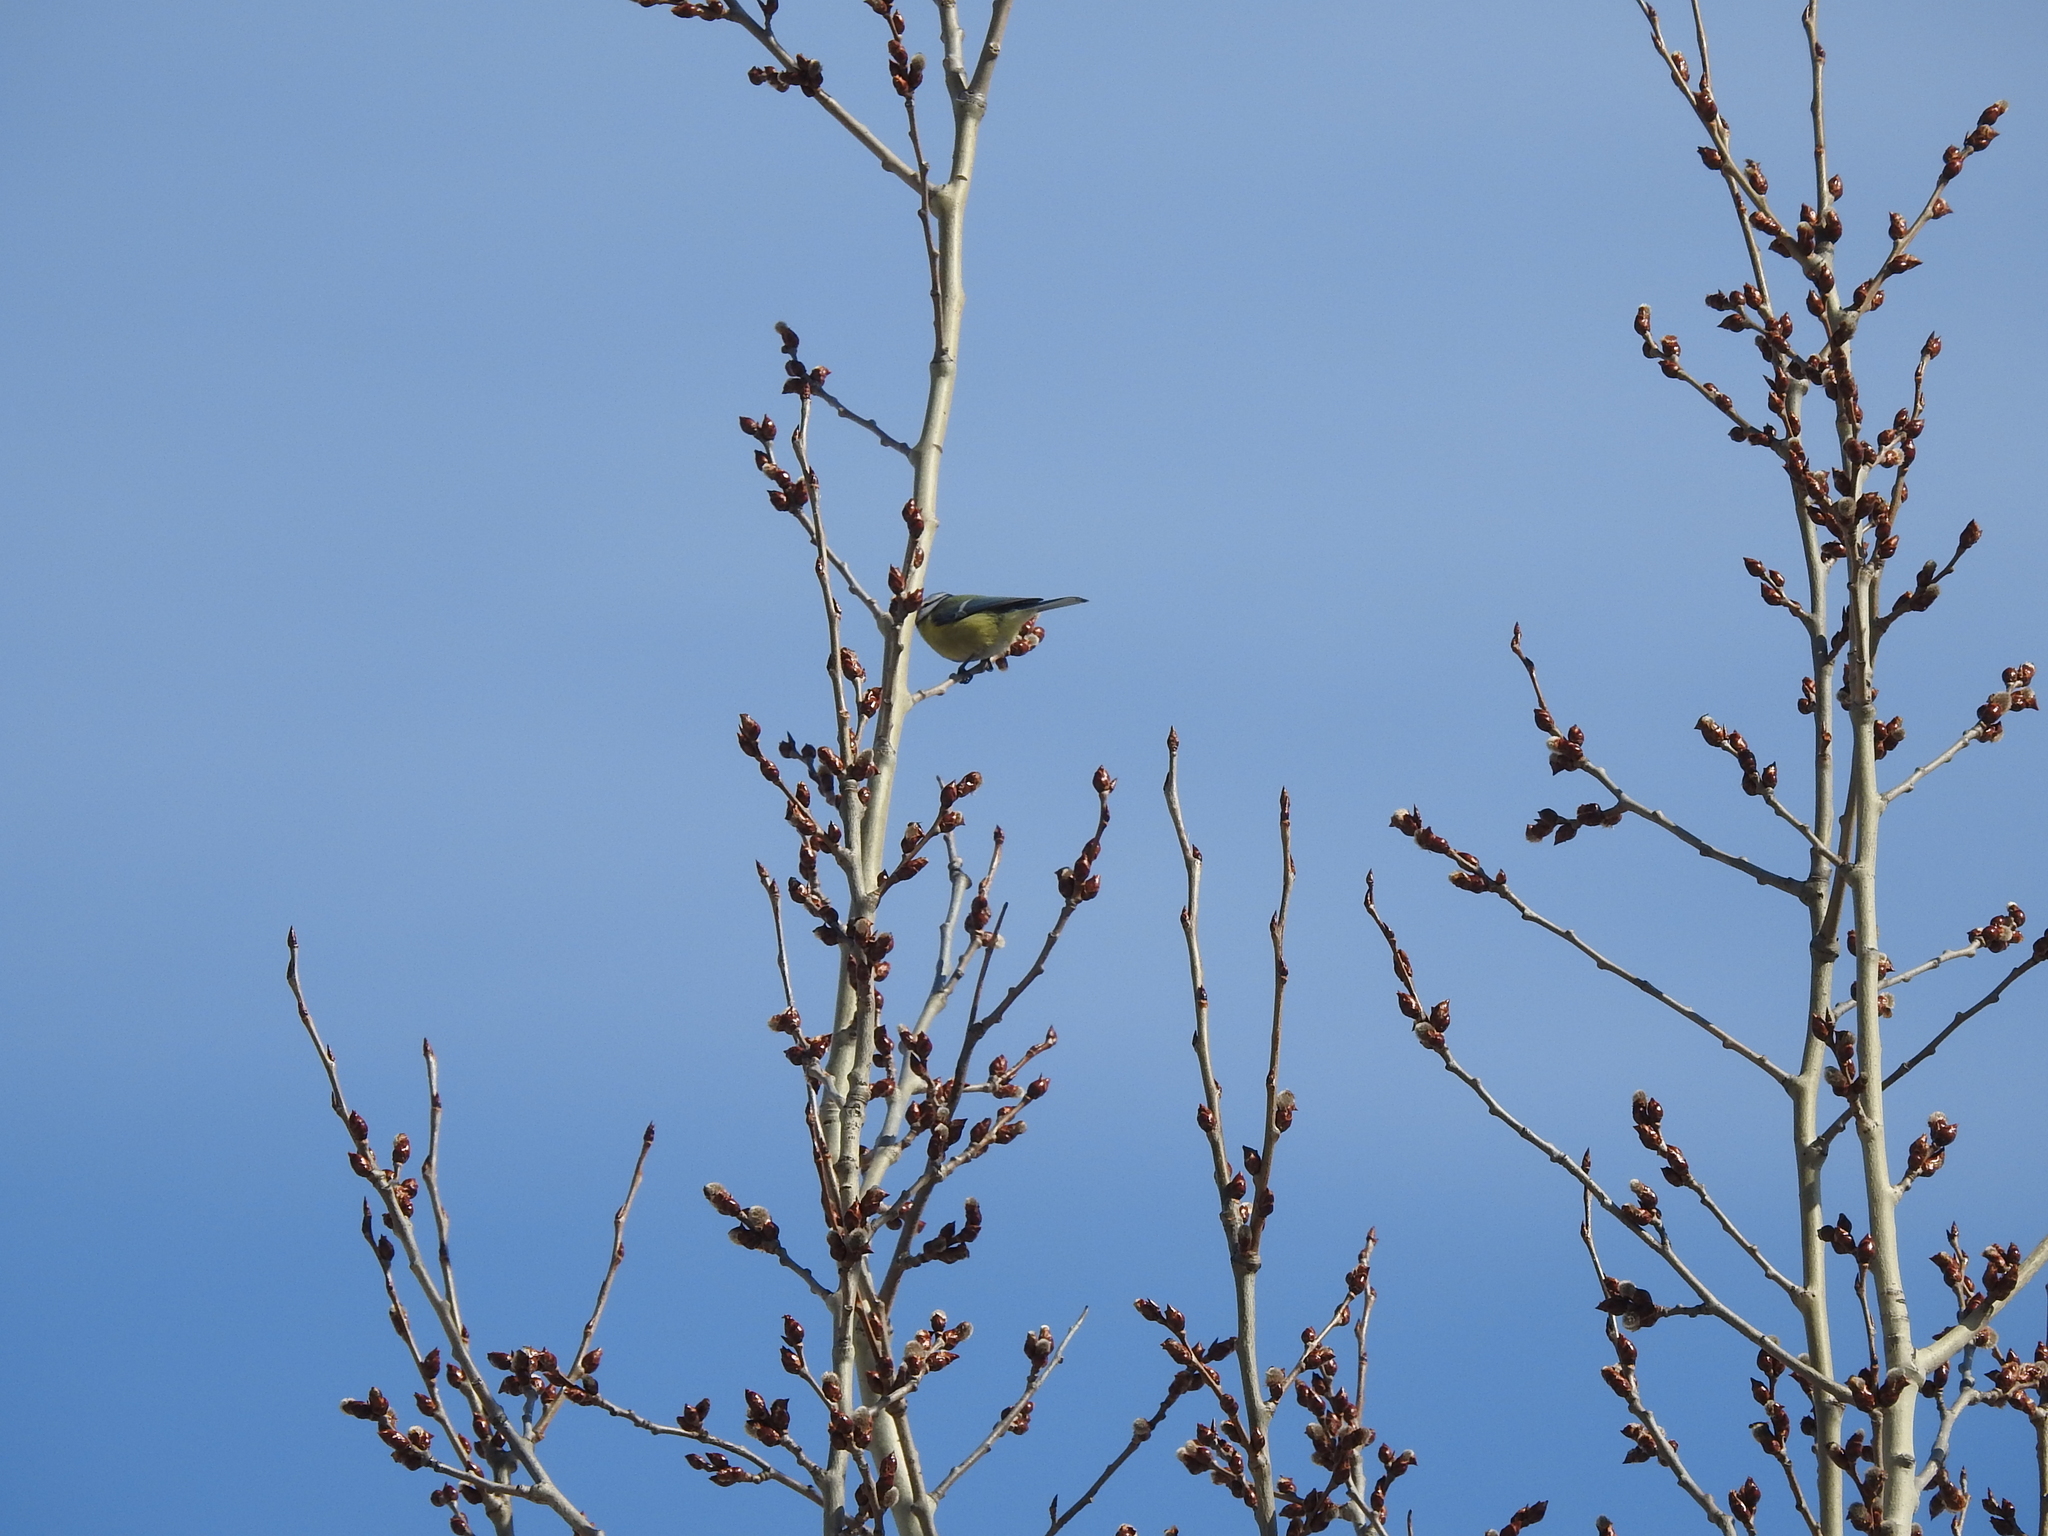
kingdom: Animalia
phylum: Chordata
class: Aves
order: Passeriformes
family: Paridae
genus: Cyanistes
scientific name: Cyanistes caeruleus
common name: Eurasian blue tit
